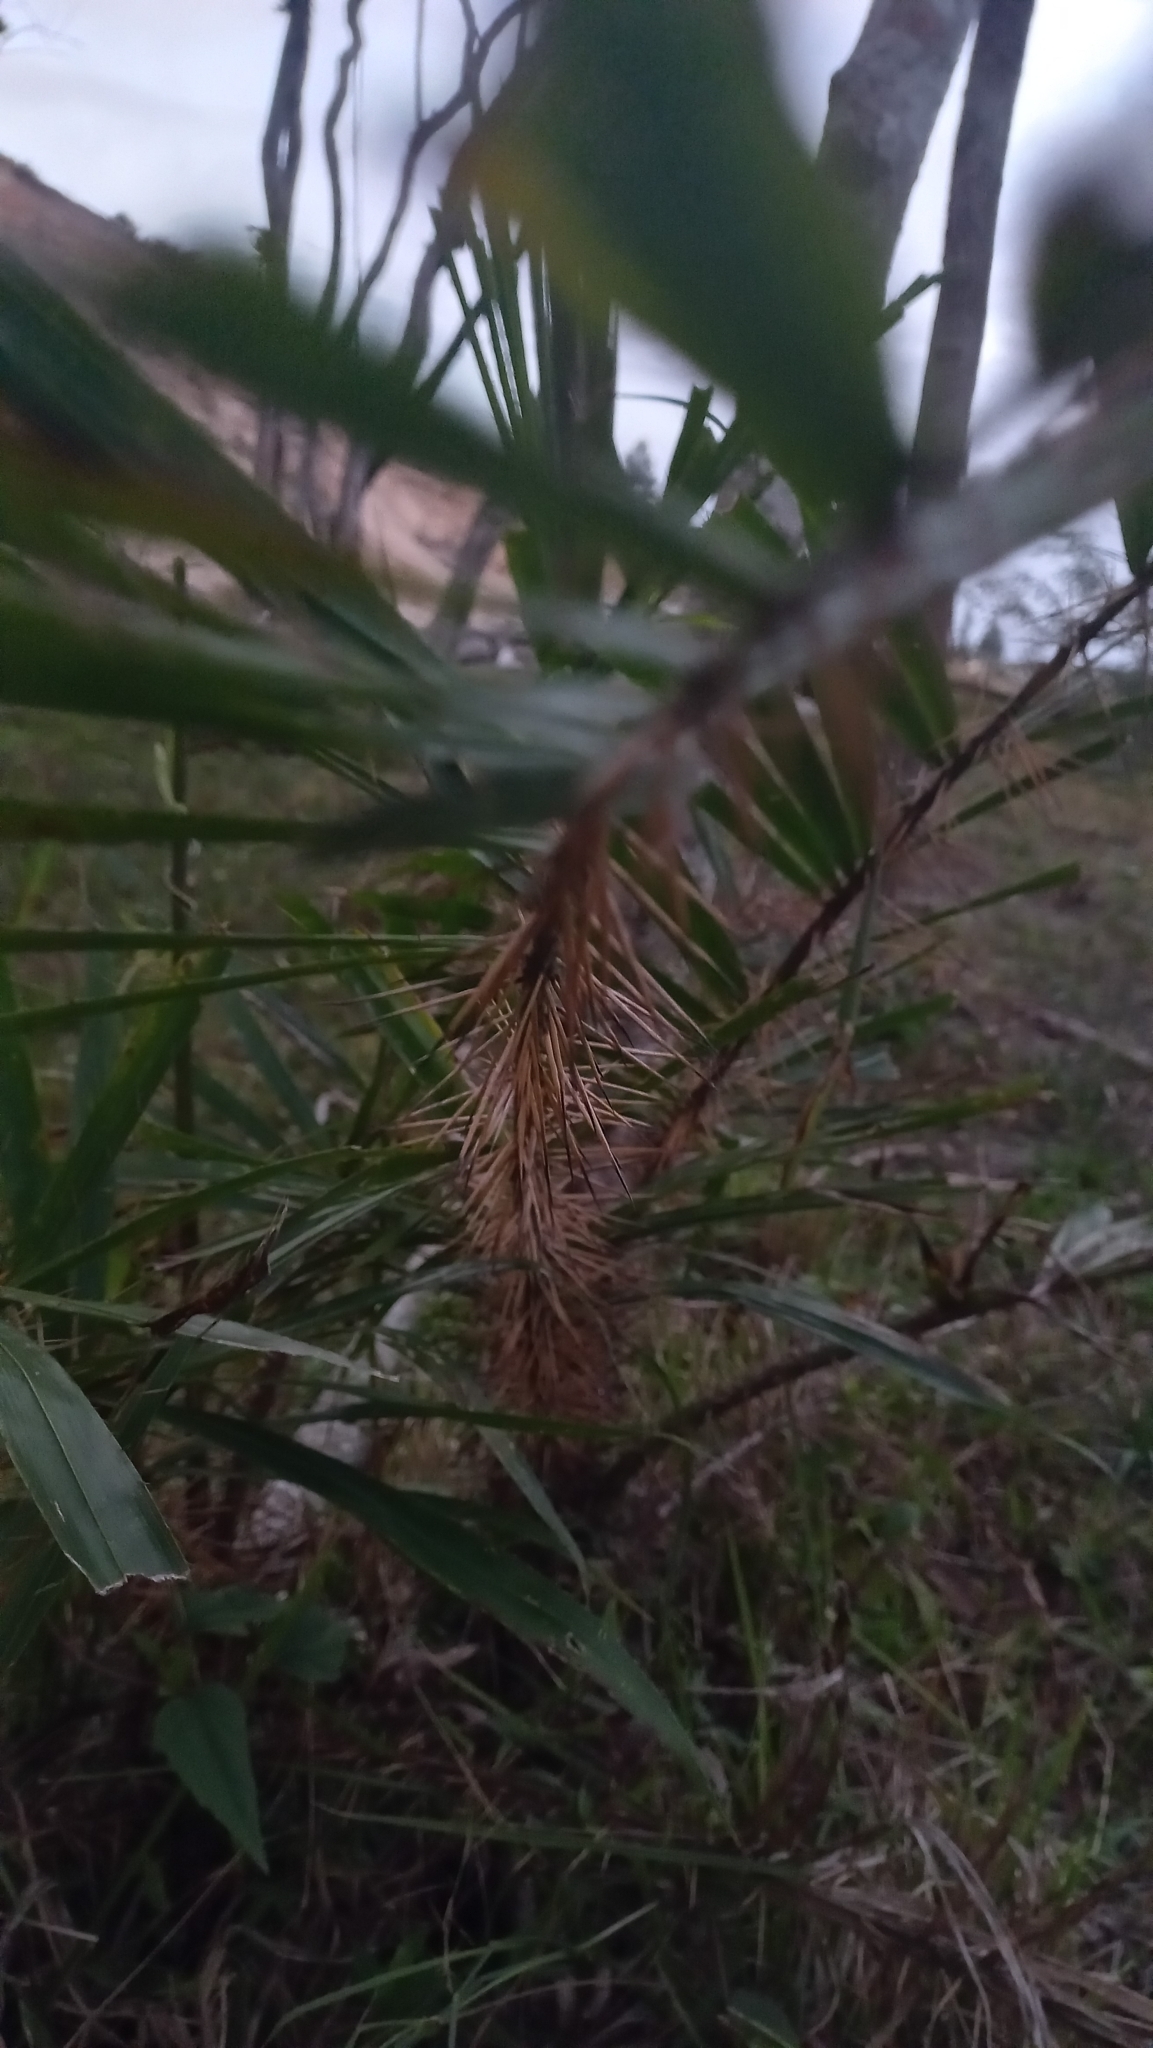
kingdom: Plantae
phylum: Tracheophyta
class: Liliopsida
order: Arecales
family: Arecaceae
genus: Bactris
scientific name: Bactris setosa
